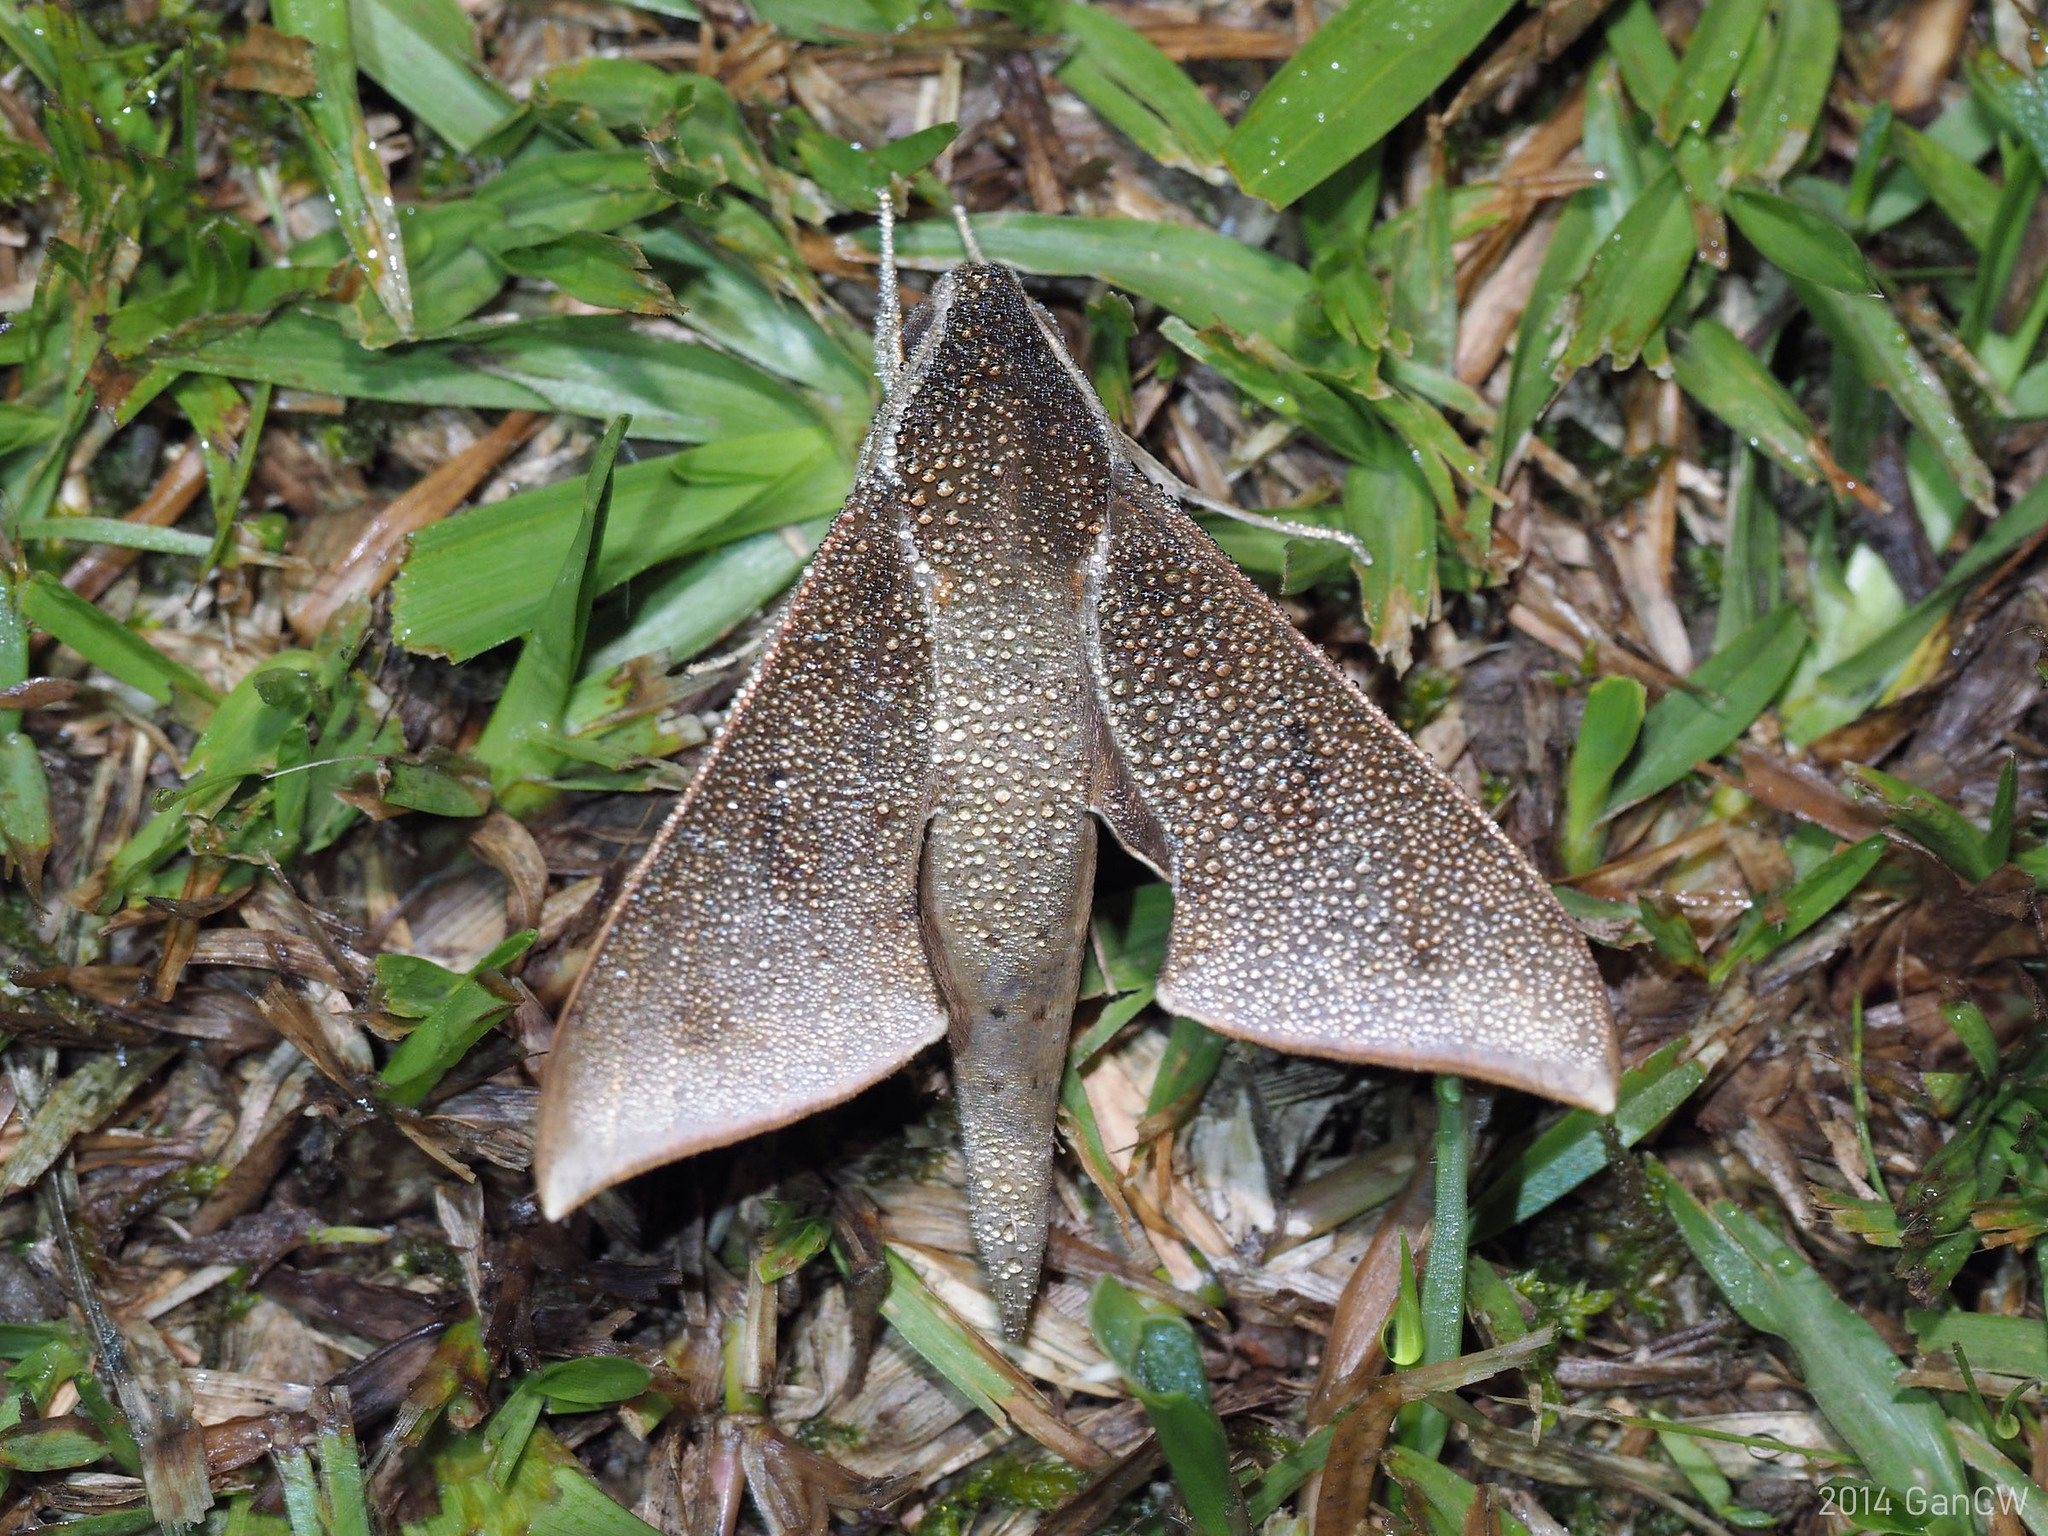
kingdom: Animalia
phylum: Arthropoda
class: Insecta
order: Lepidoptera
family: Sphingidae
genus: Rhagastis
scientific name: Rhagastis rubetra
